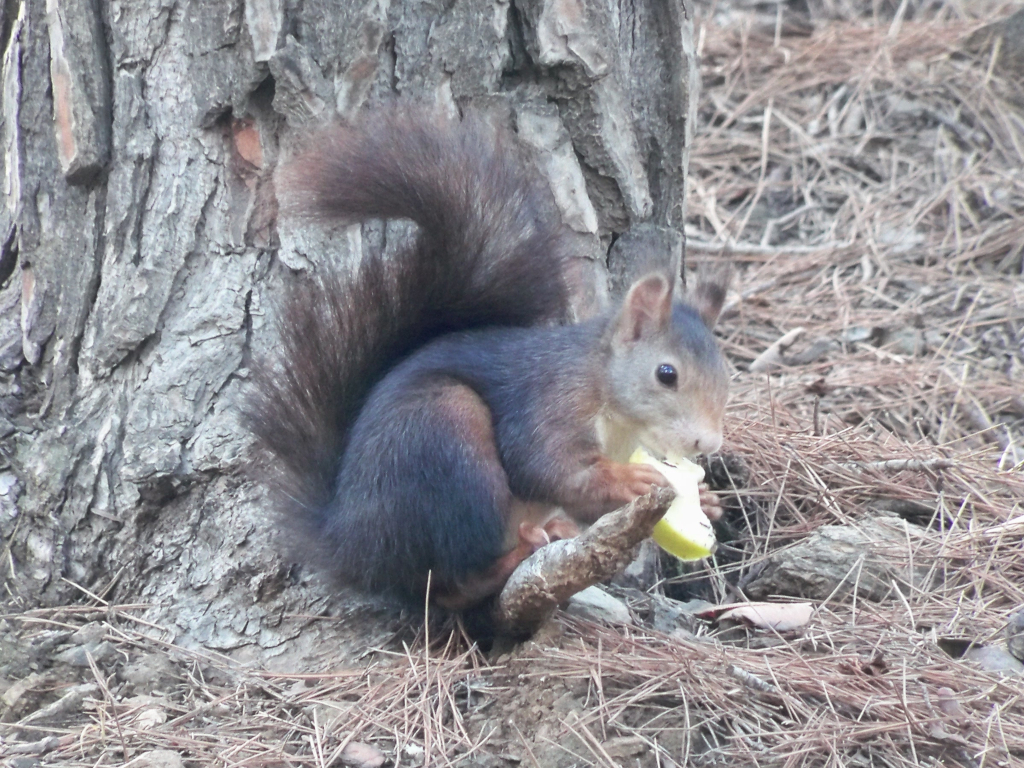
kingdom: Animalia
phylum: Chordata
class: Mammalia
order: Rodentia
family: Sciuridae
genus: Sciurus
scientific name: Sciurus vulgaris
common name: Eurasian red squirrel
